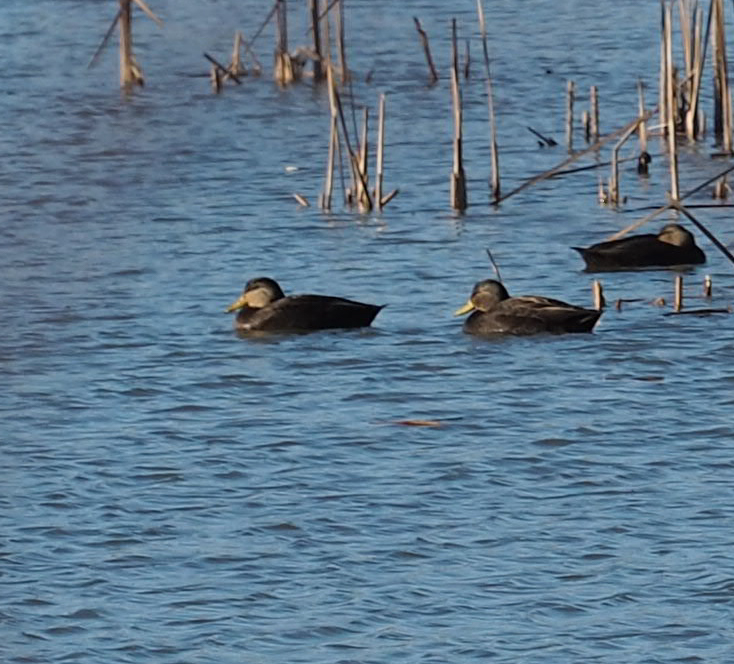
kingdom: Animalia
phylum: Chordata
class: Aves
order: Anseriformes
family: Anatidae
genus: Anas
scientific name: Anas rubripes
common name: American black duck
